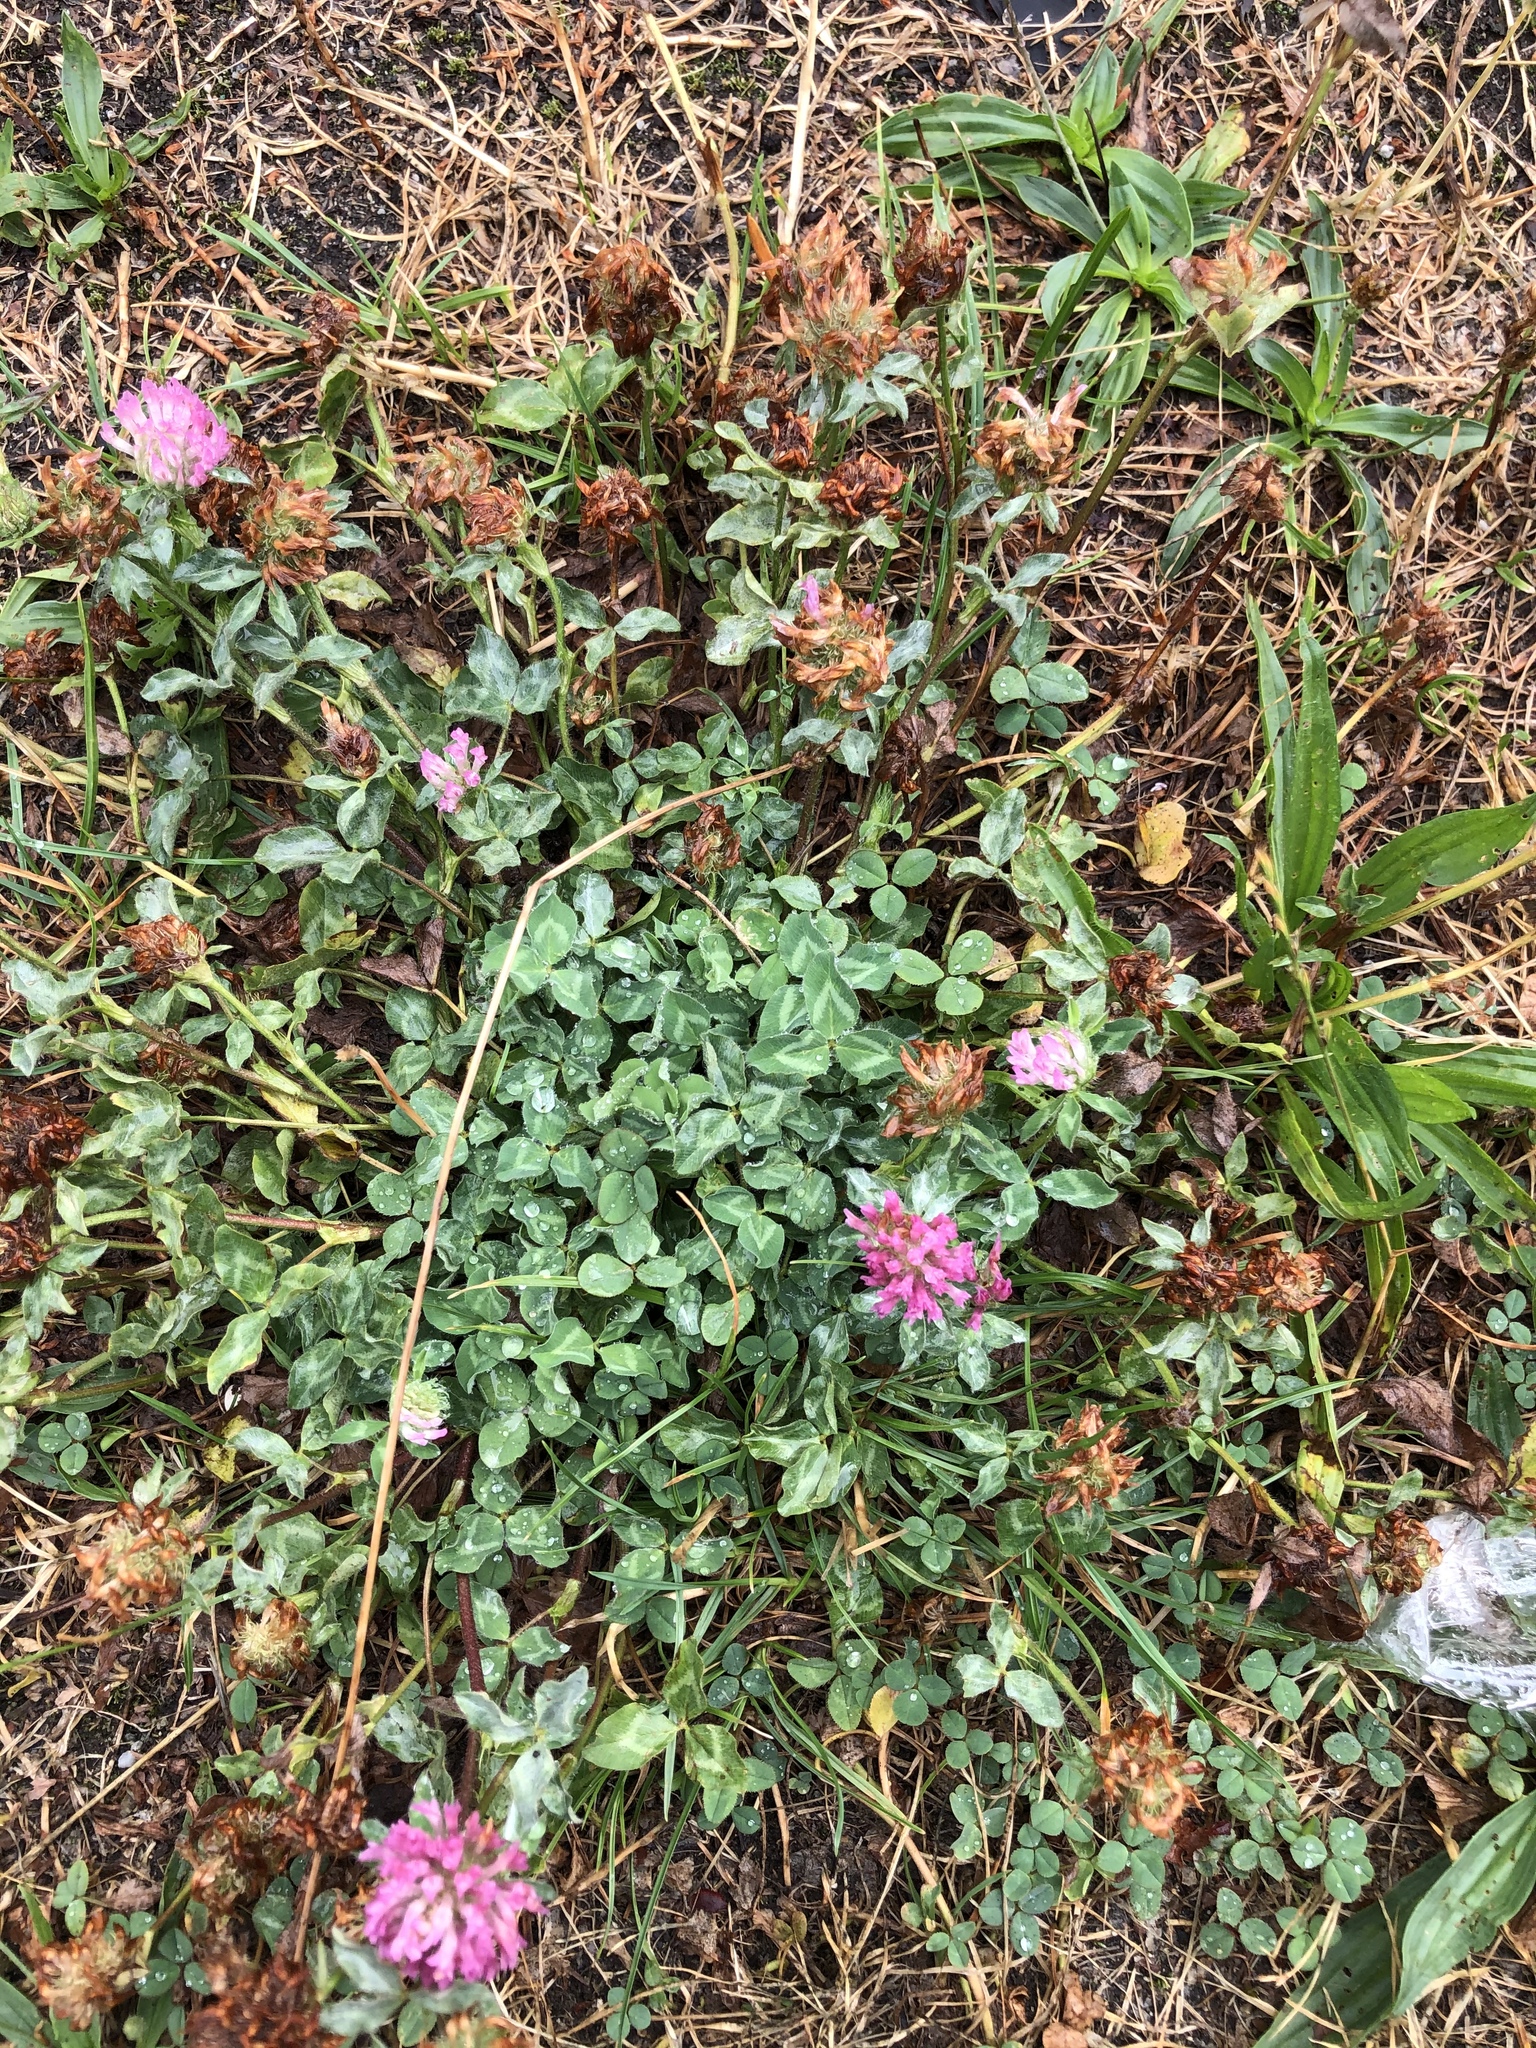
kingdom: Plantae
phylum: Tracheophyta
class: Magnoliopsida
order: Fabales
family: Fabaceae
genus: Trifolium
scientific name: Trifolium pratense
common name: Red clover
